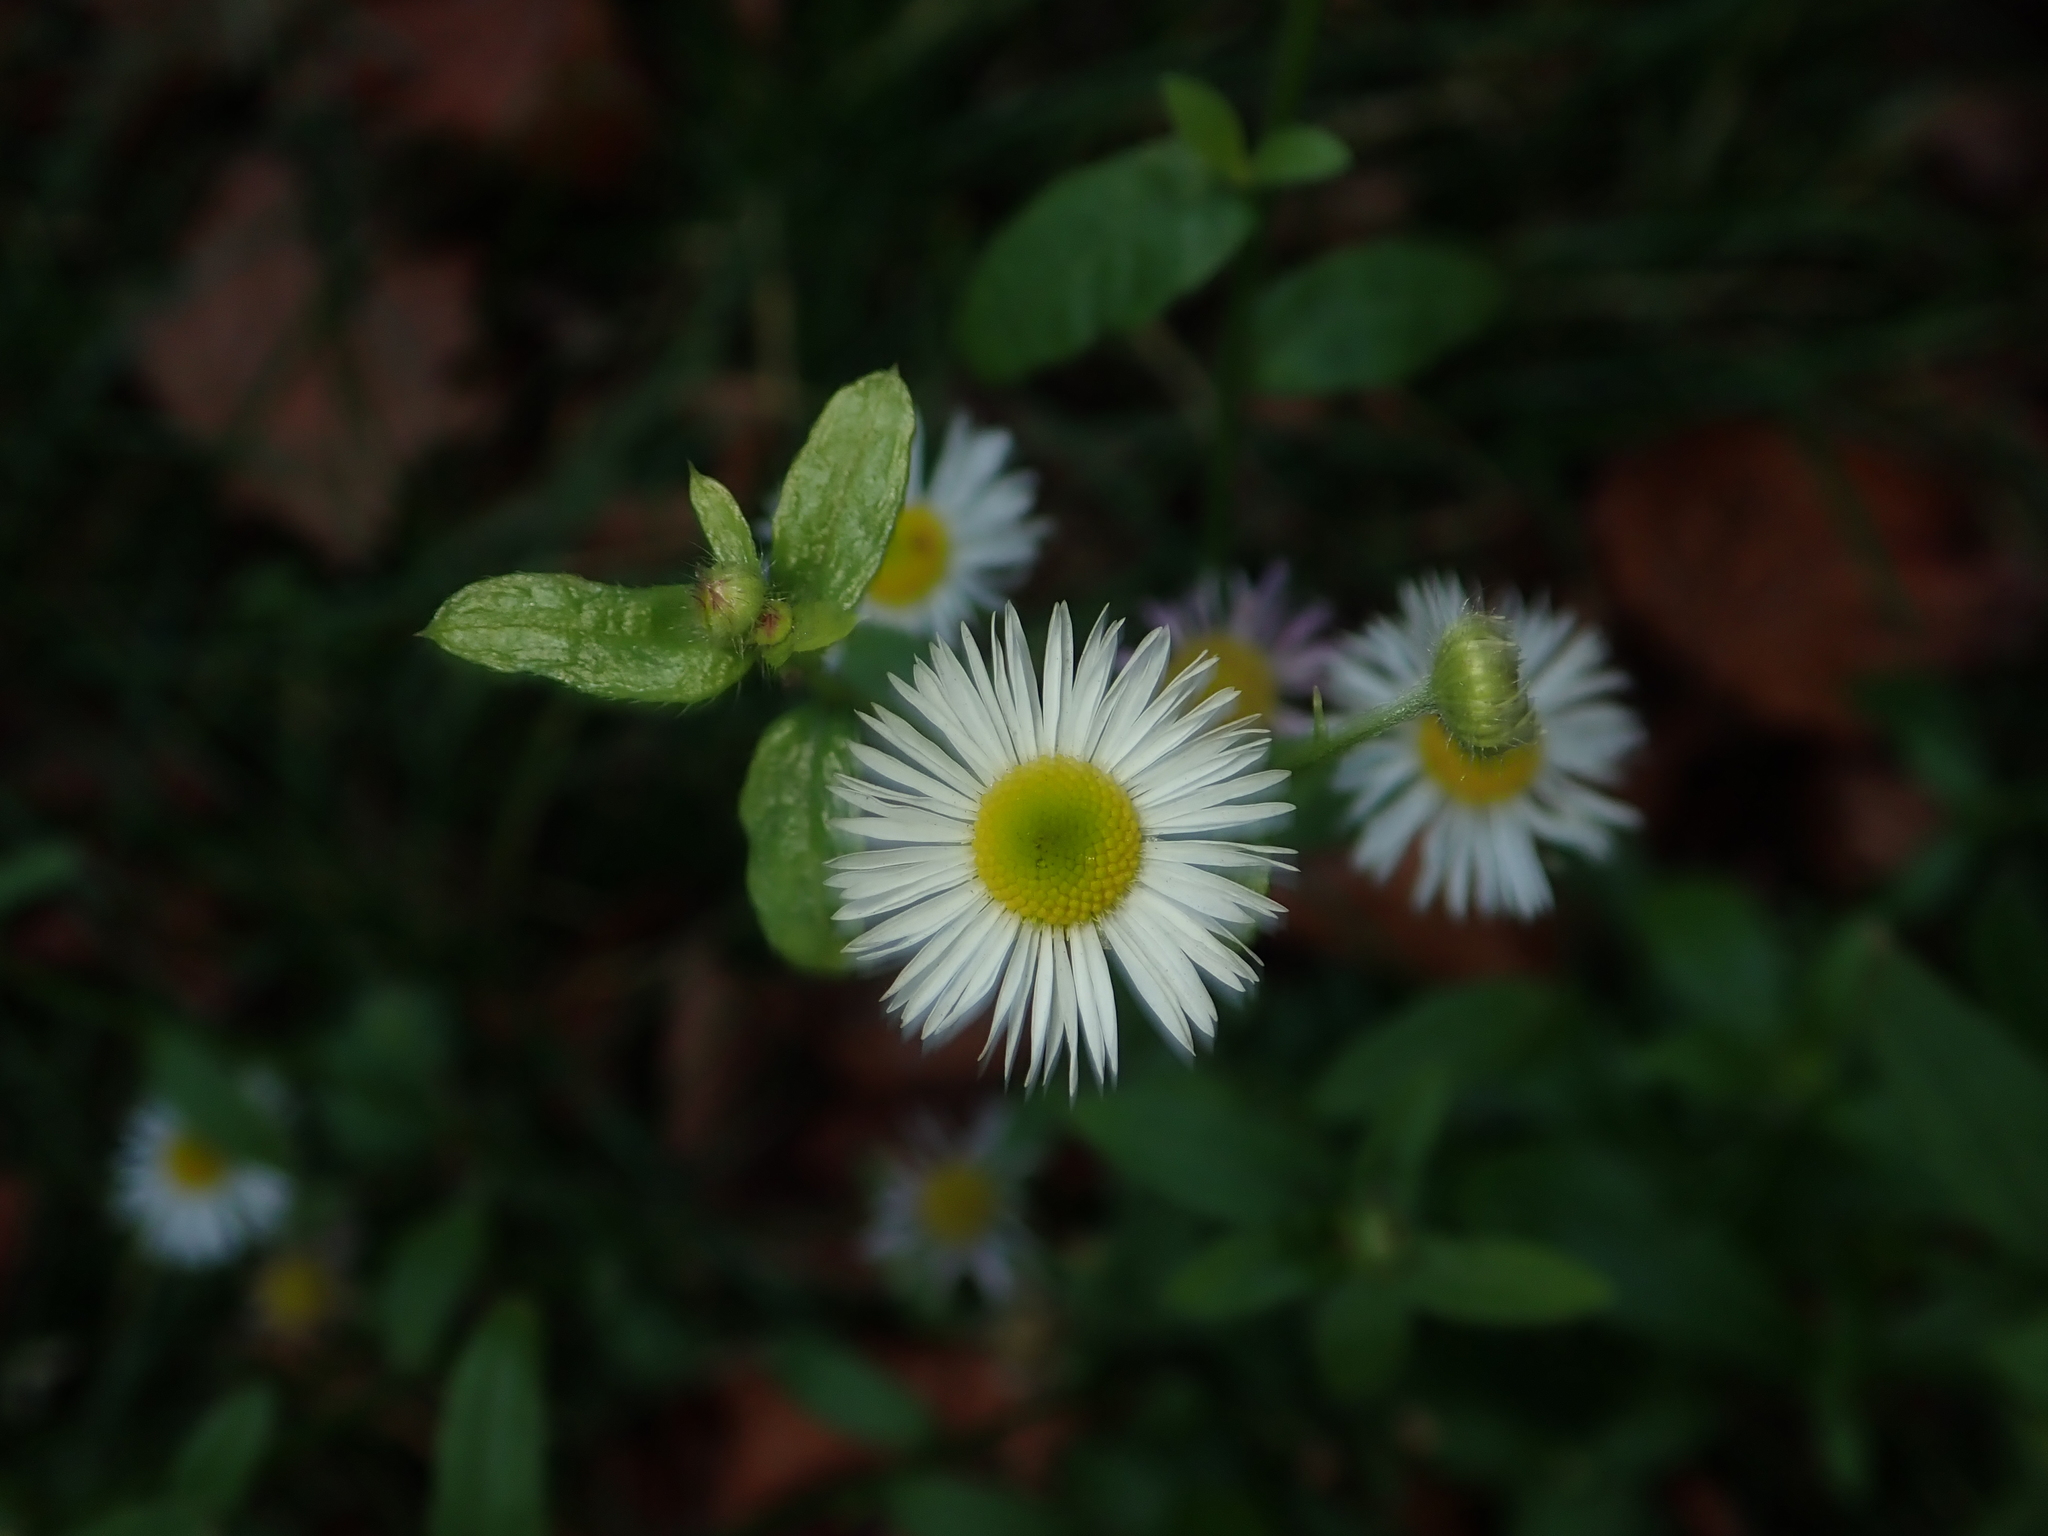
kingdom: Plantae
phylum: Tracheophyta
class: Magnoliopsida
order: Asterales
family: Asteraceae
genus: Erigeron
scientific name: Erigeron annuus
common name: Tall fleabane
